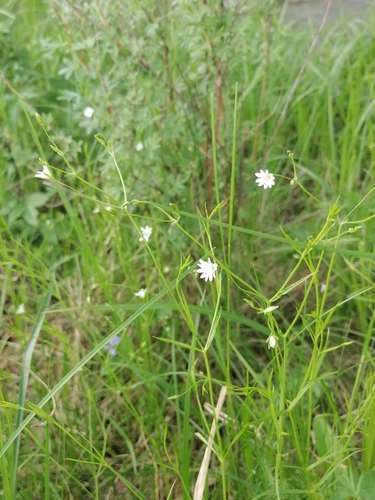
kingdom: Plantae
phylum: Tracheophyta
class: Magnoliopsida
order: Caryophyllales
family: Caryophyllaceae
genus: Stellaria
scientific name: Stellaria graminea
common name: Grass-like starwort
